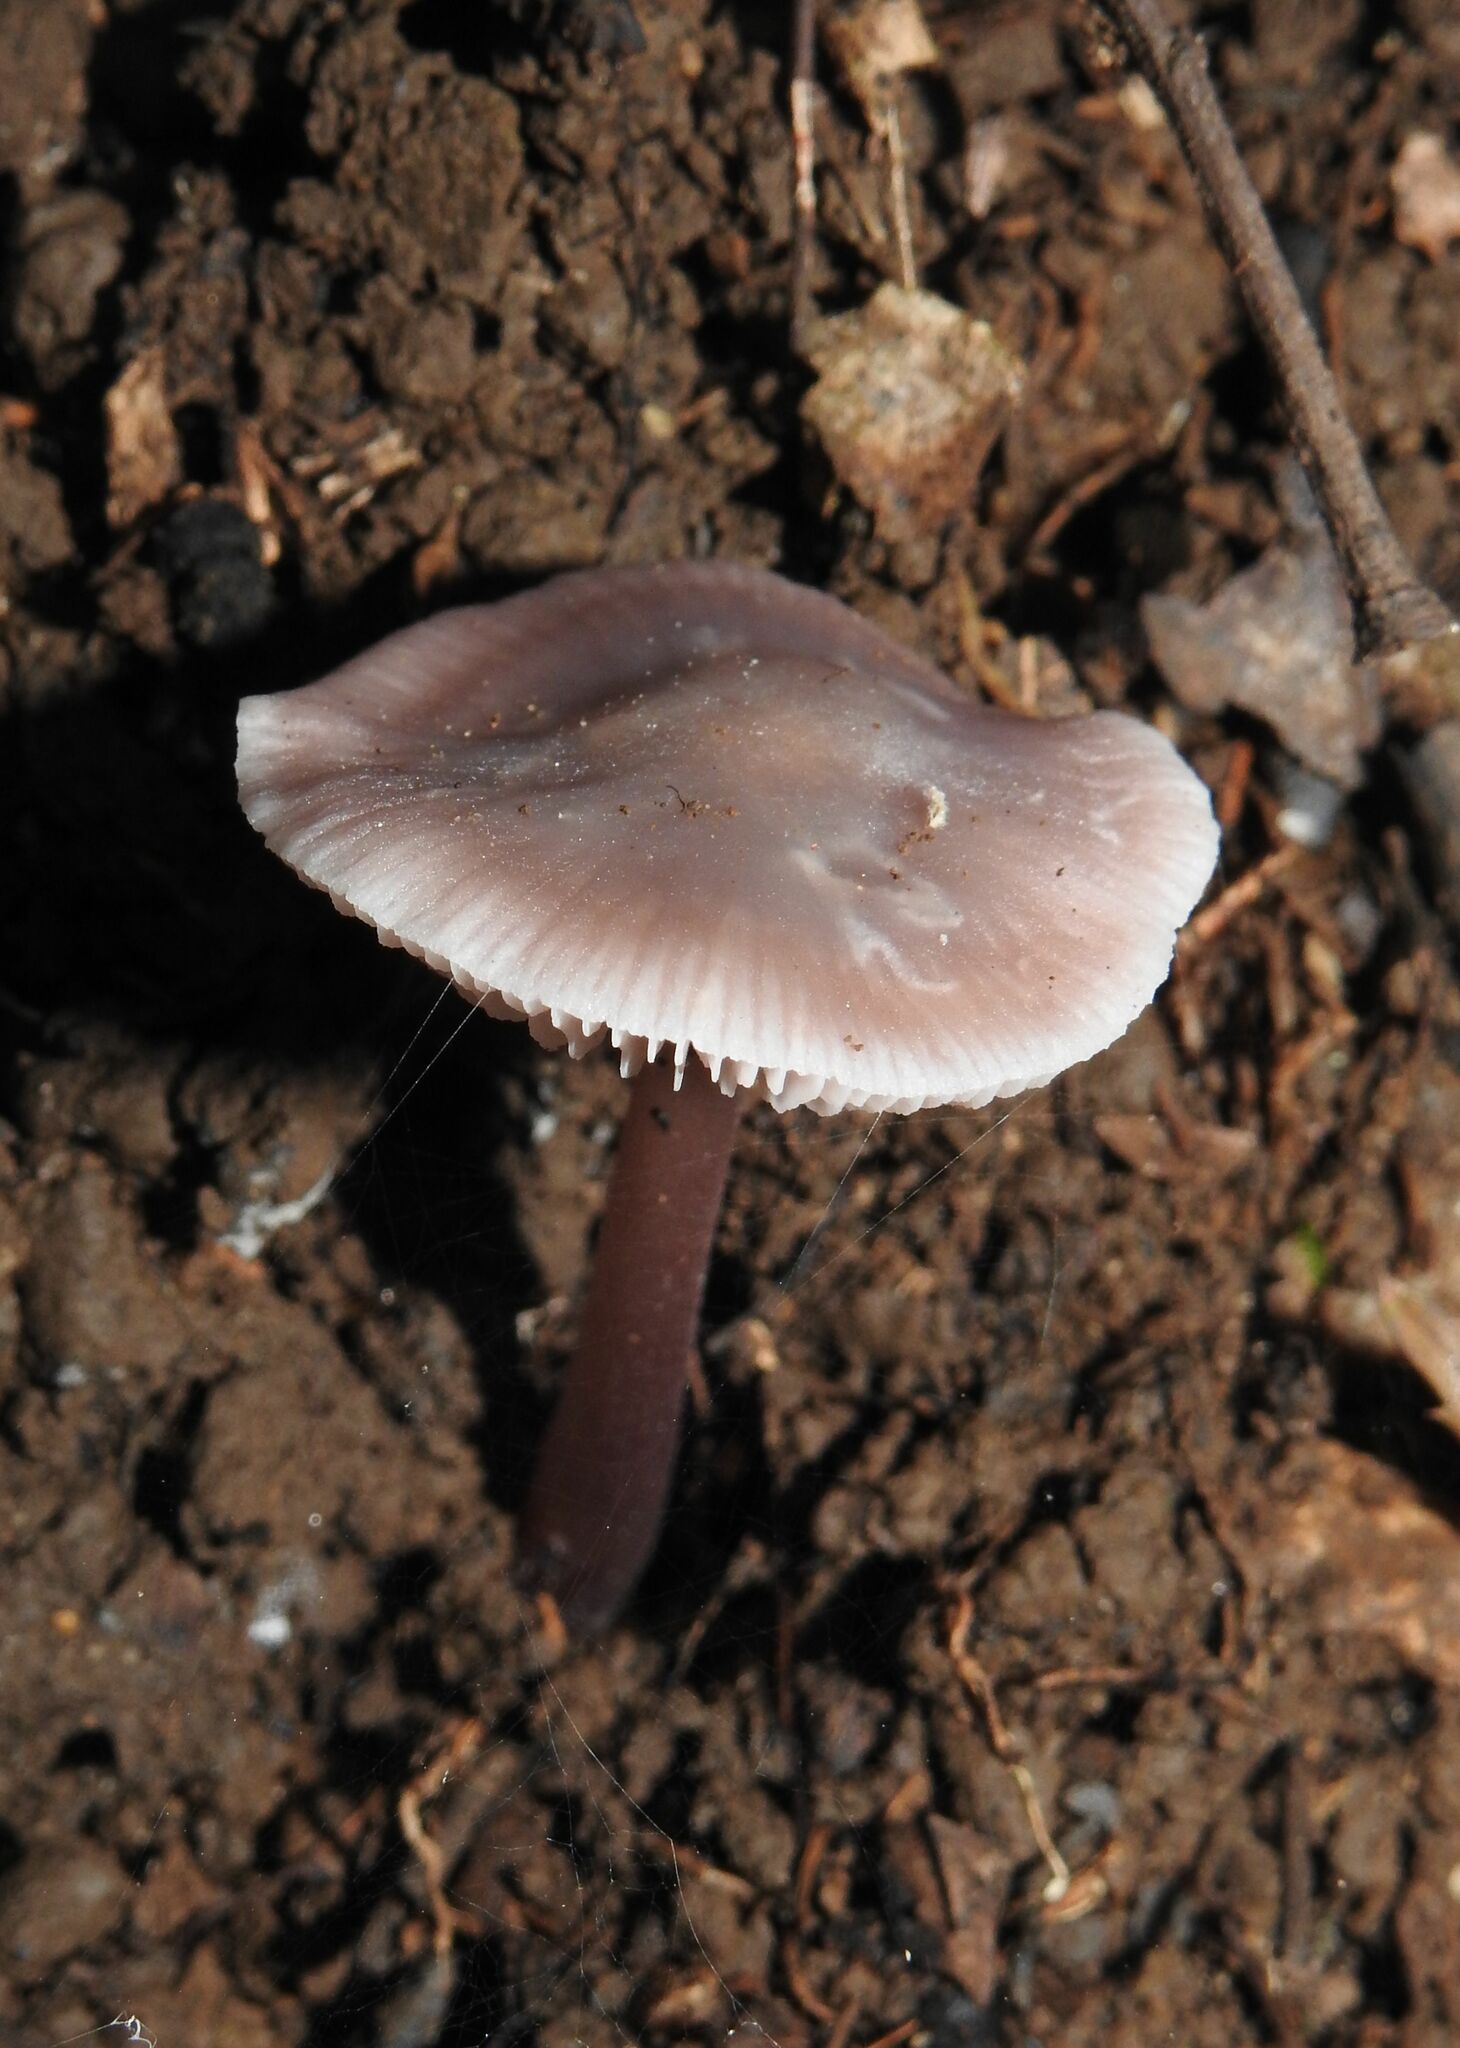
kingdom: Fungi
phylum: Basidiomycota
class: Agaricomycetes
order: Agaricales
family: Mycenaceae
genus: Mycena
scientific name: Mycena pura
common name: Lilac bonnet
